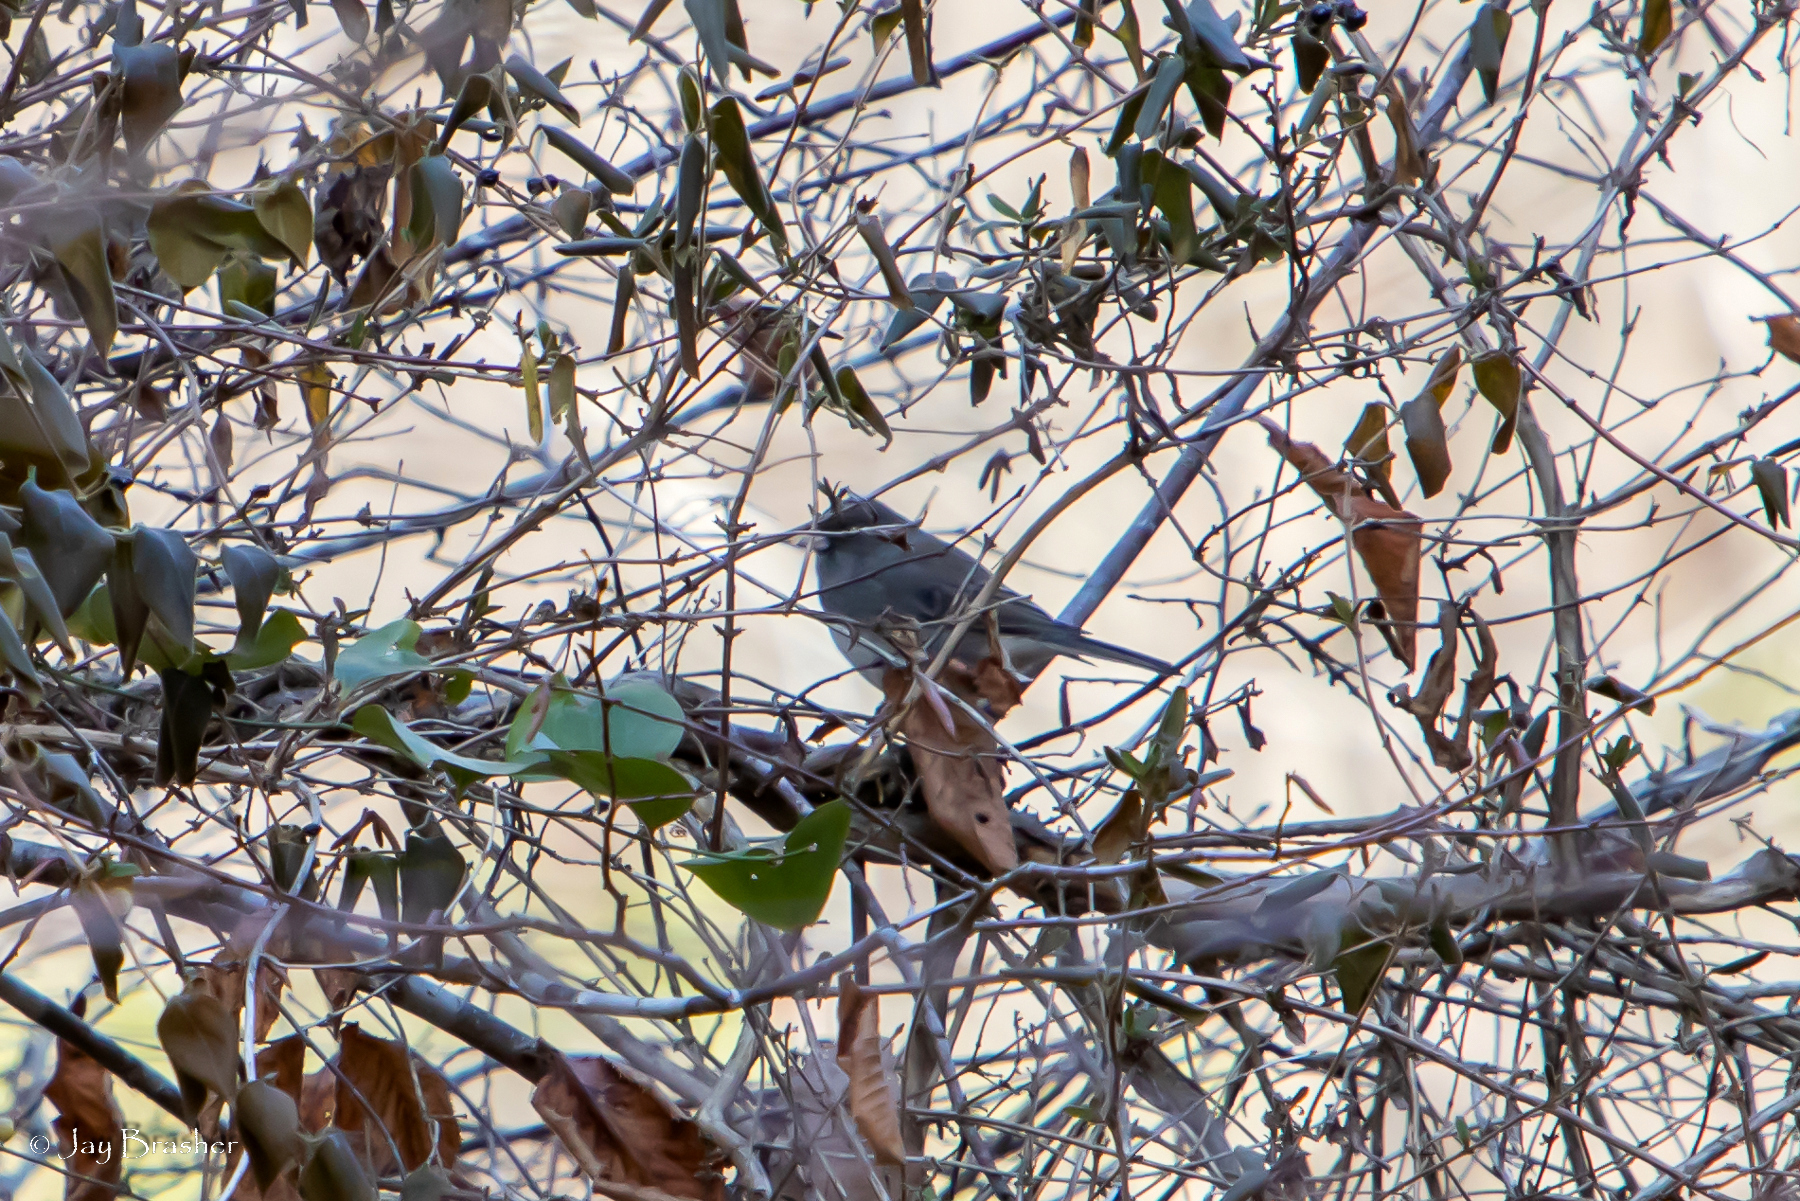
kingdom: Animalia
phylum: Chordata
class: Aves
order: Passeriformes
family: Passerellidae
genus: Junco
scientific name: Junco hyemalis
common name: Dark-eyed junco
